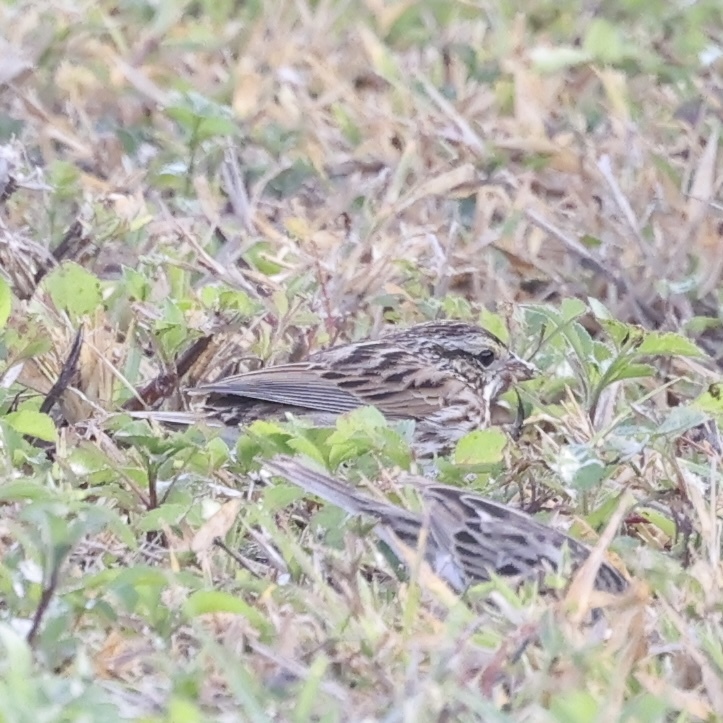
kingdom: Animalia
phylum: Chordata
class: Aves
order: Passeriformes
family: Passerellidae
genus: Passerculus
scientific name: Passerculus sandwichensis
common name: Savannah sparrow
